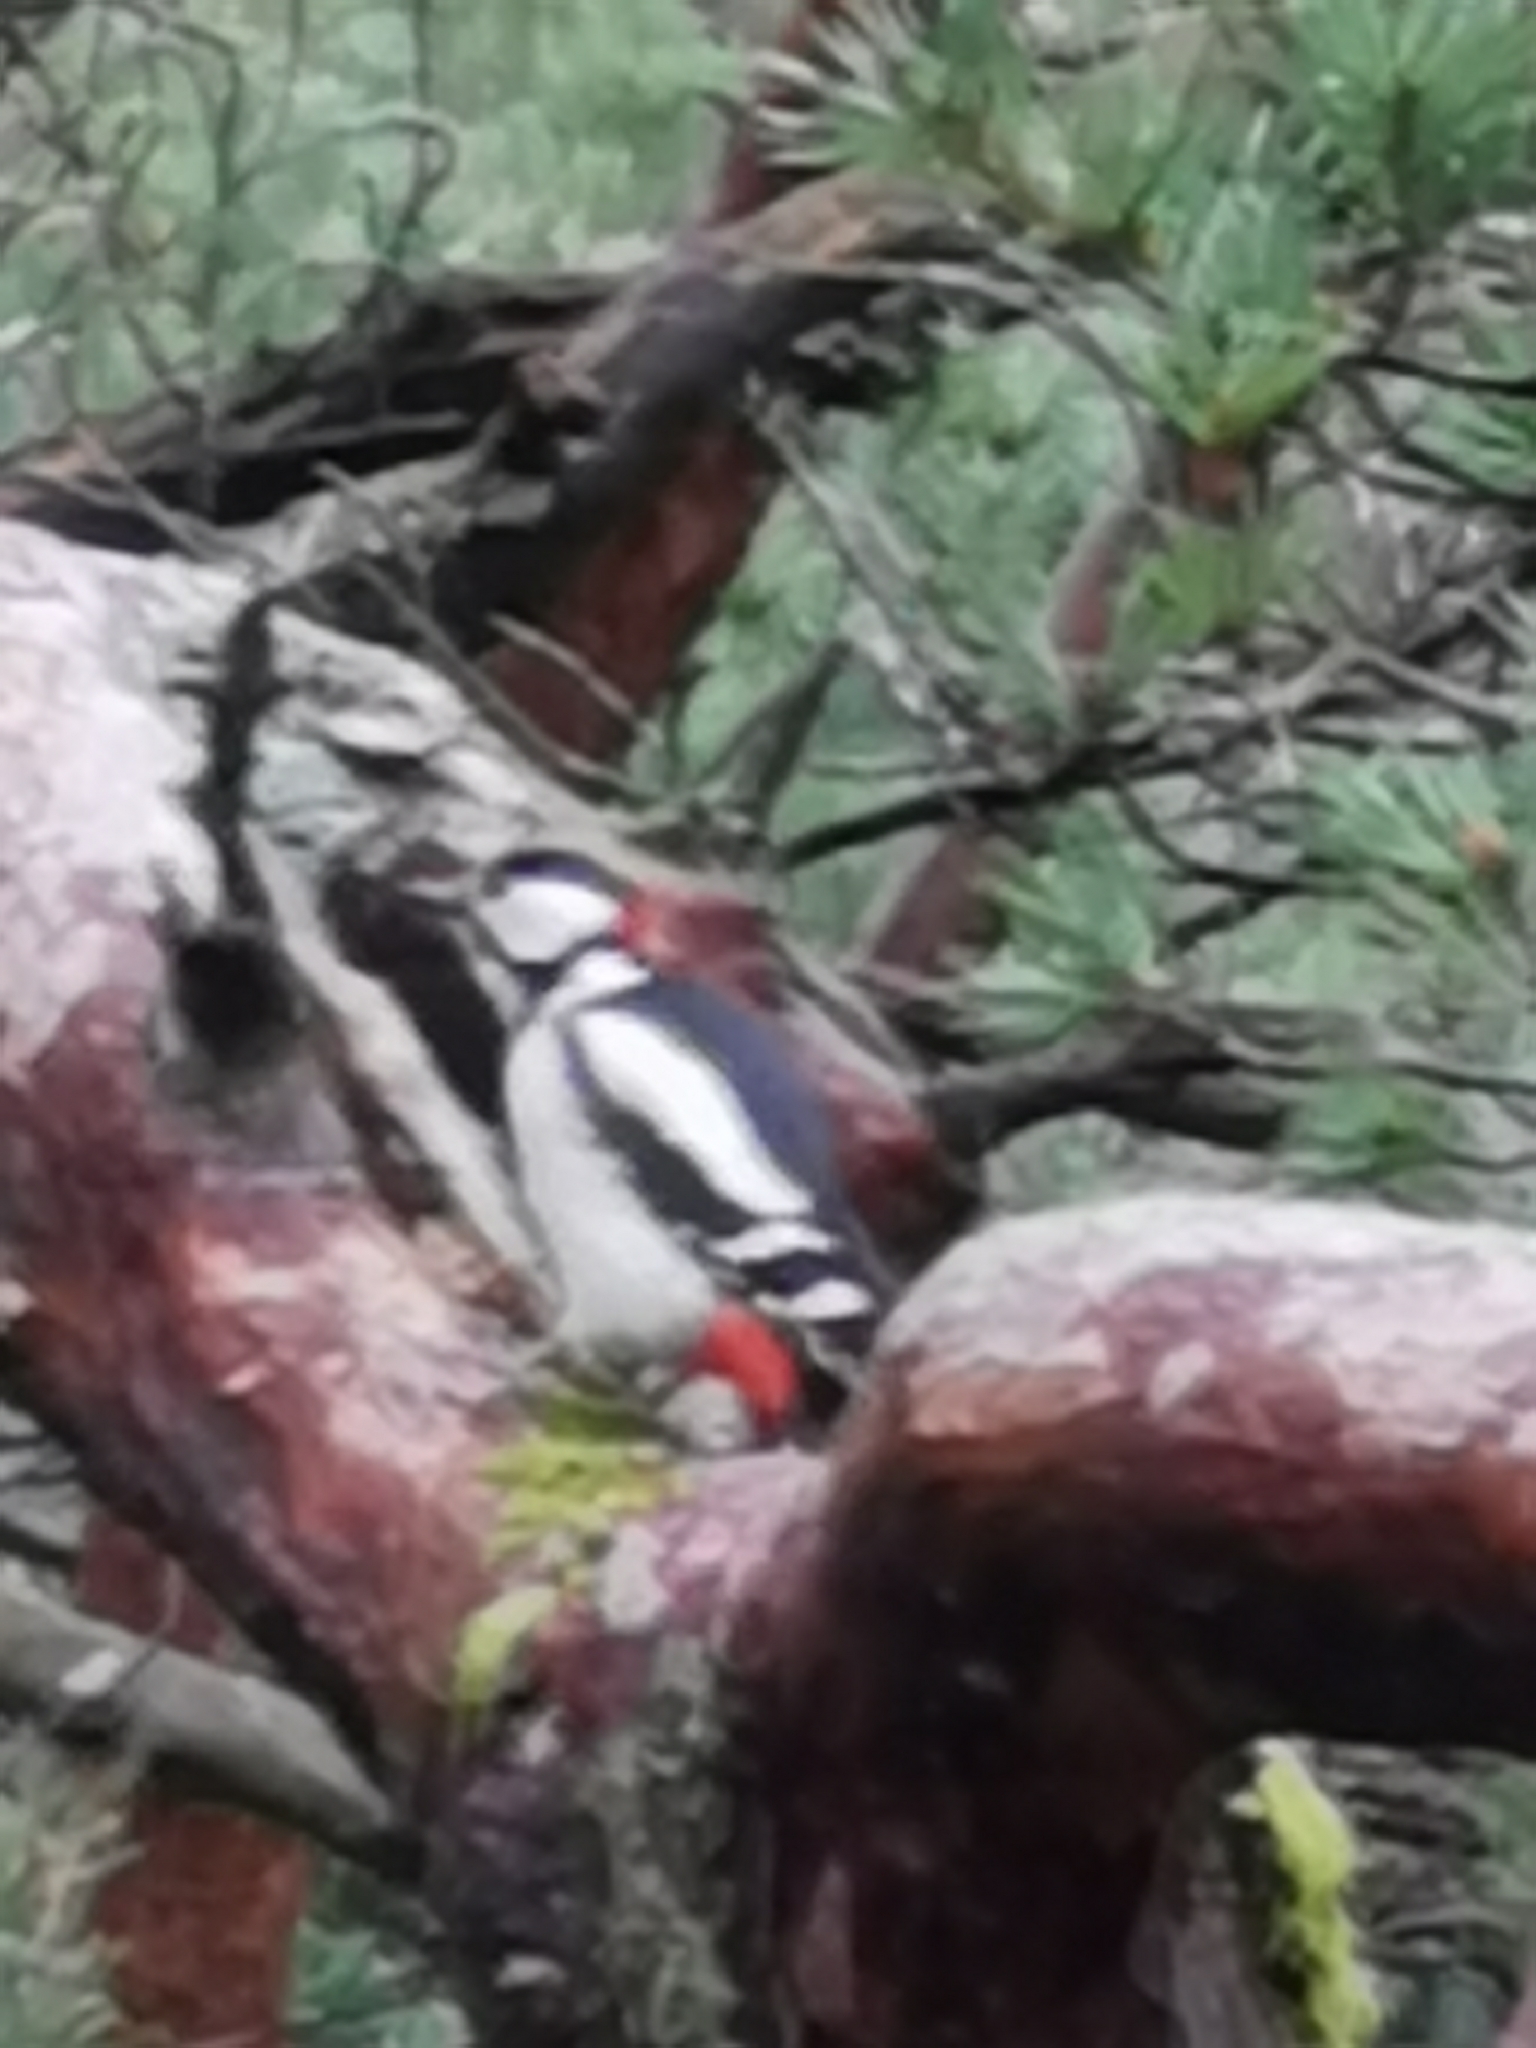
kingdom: Animalia
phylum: Chordata
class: Aves
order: Piciformes
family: Picidae
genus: Dendrocopos
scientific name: Dendrocopos major
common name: Great spotted woodpecker
